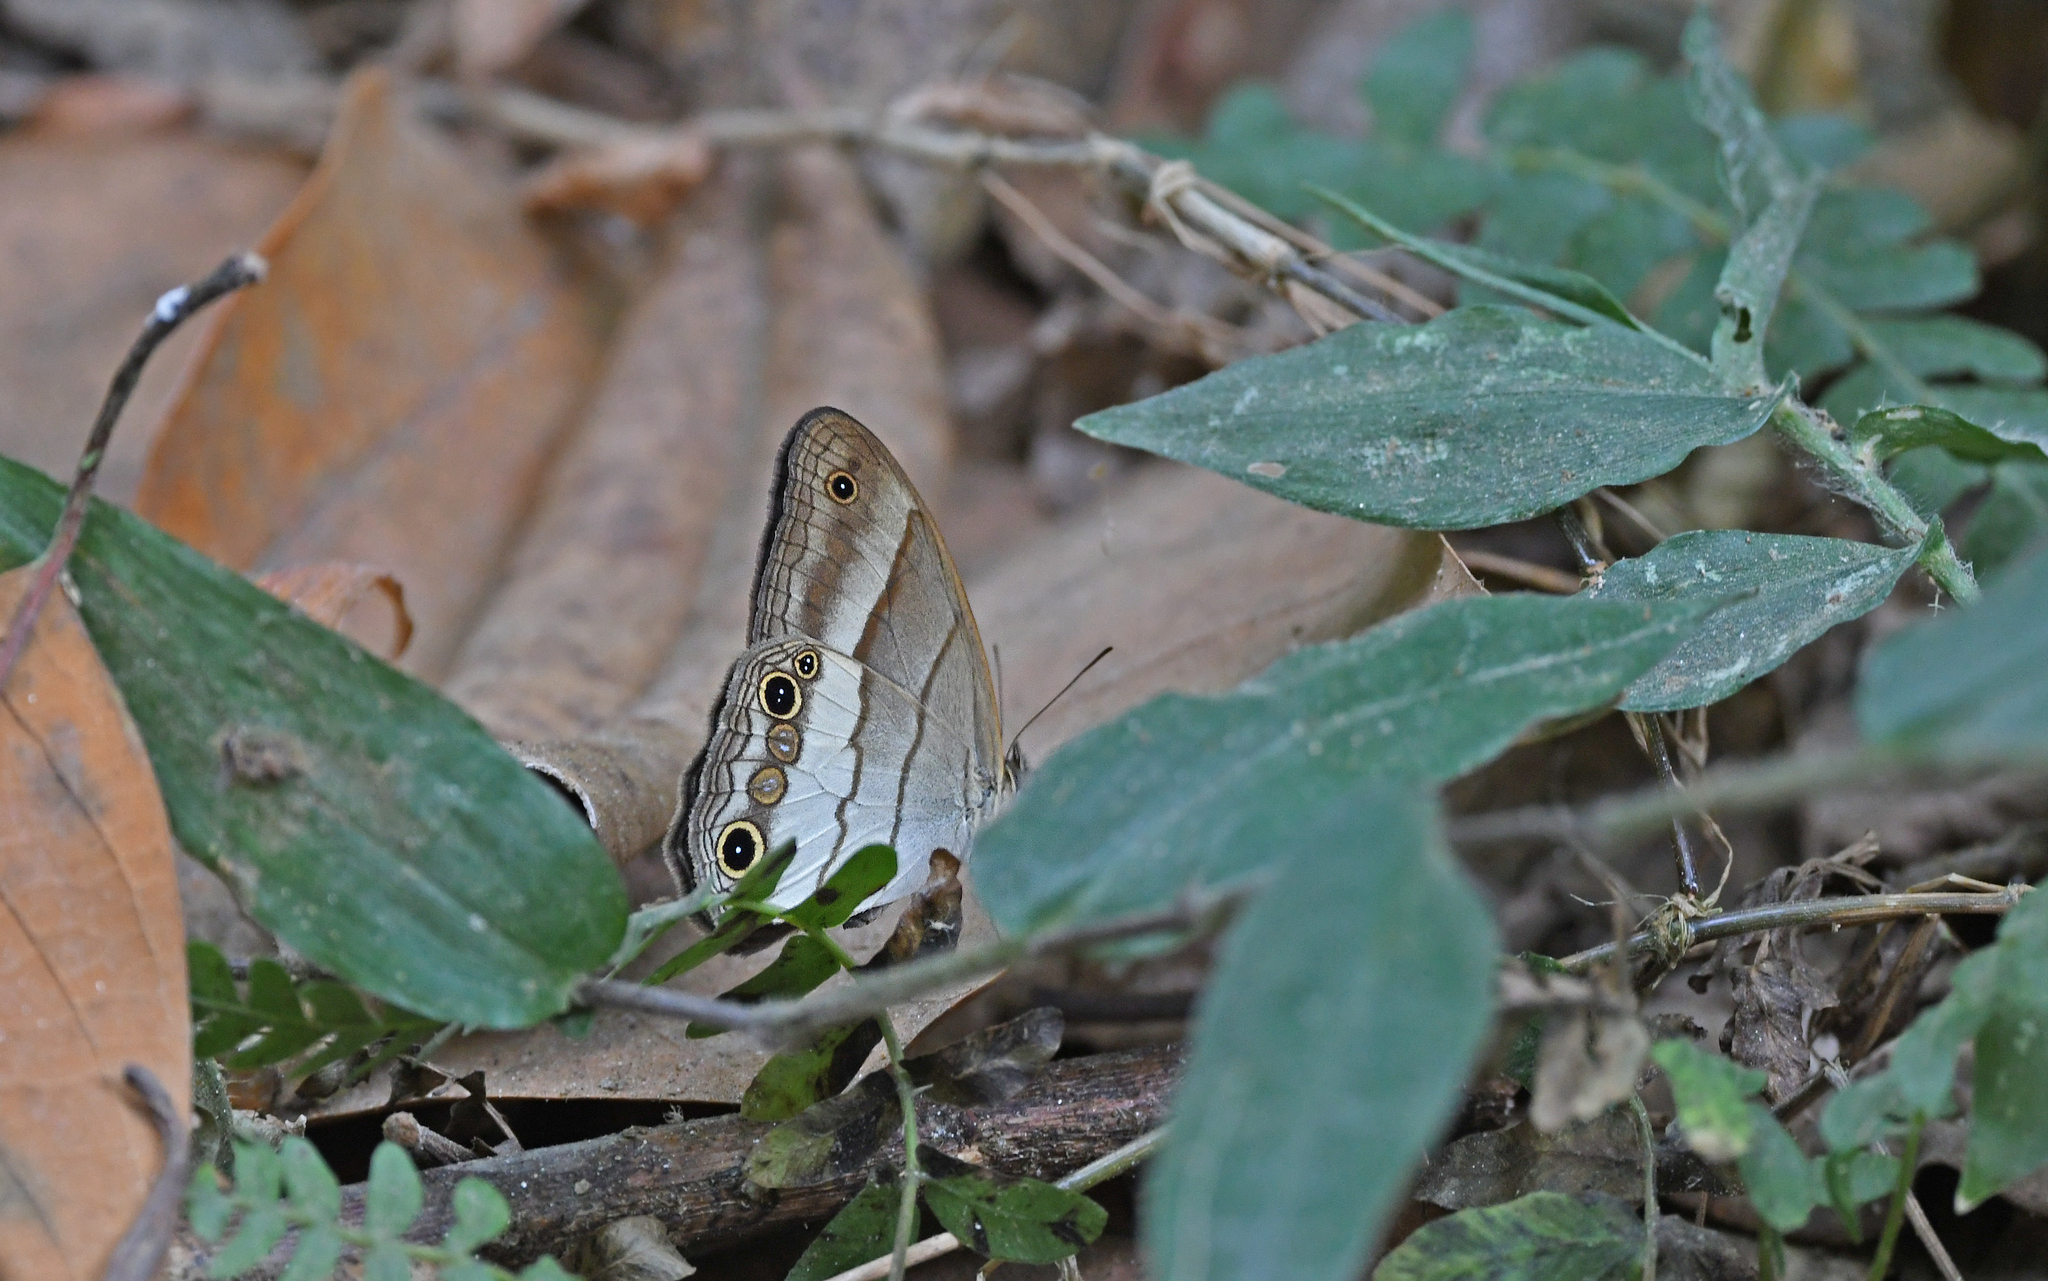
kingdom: Animalia
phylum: Arthropoda
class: Insecta
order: Lepidoptera
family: Nymphalidae
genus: Euptychoides
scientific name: Euptychoides saturnus
